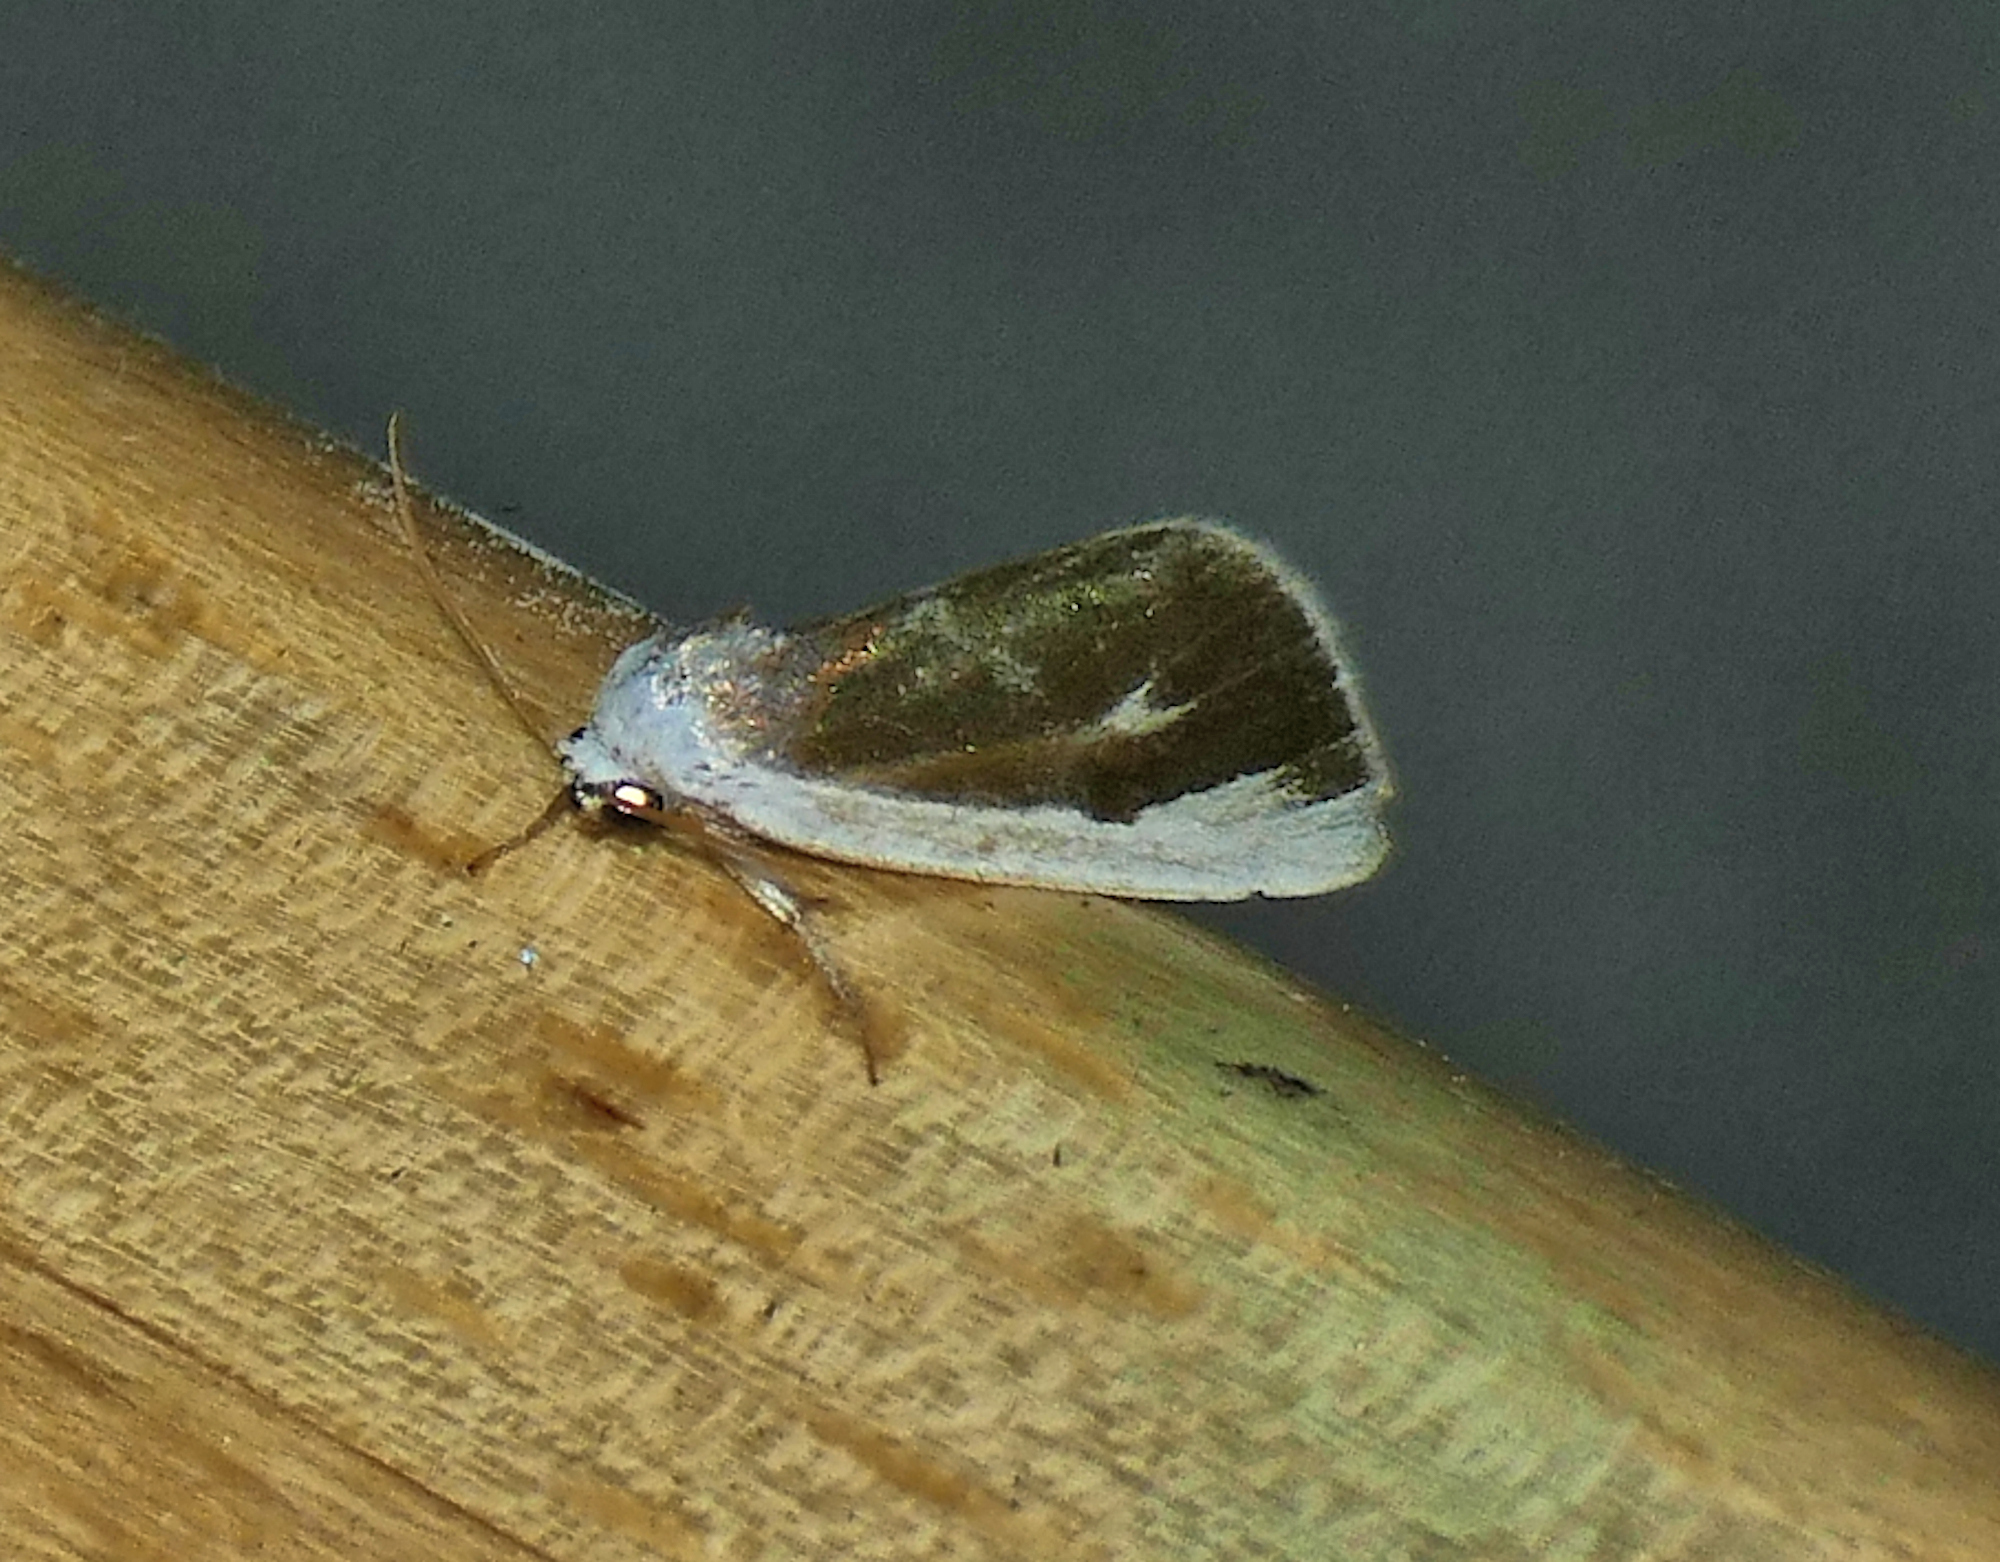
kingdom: Animalia
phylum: Arthropoda
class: Insecta
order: Lepidoptera
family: Noctuidae
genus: Neumoegenia
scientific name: Neumoegenia poetica
